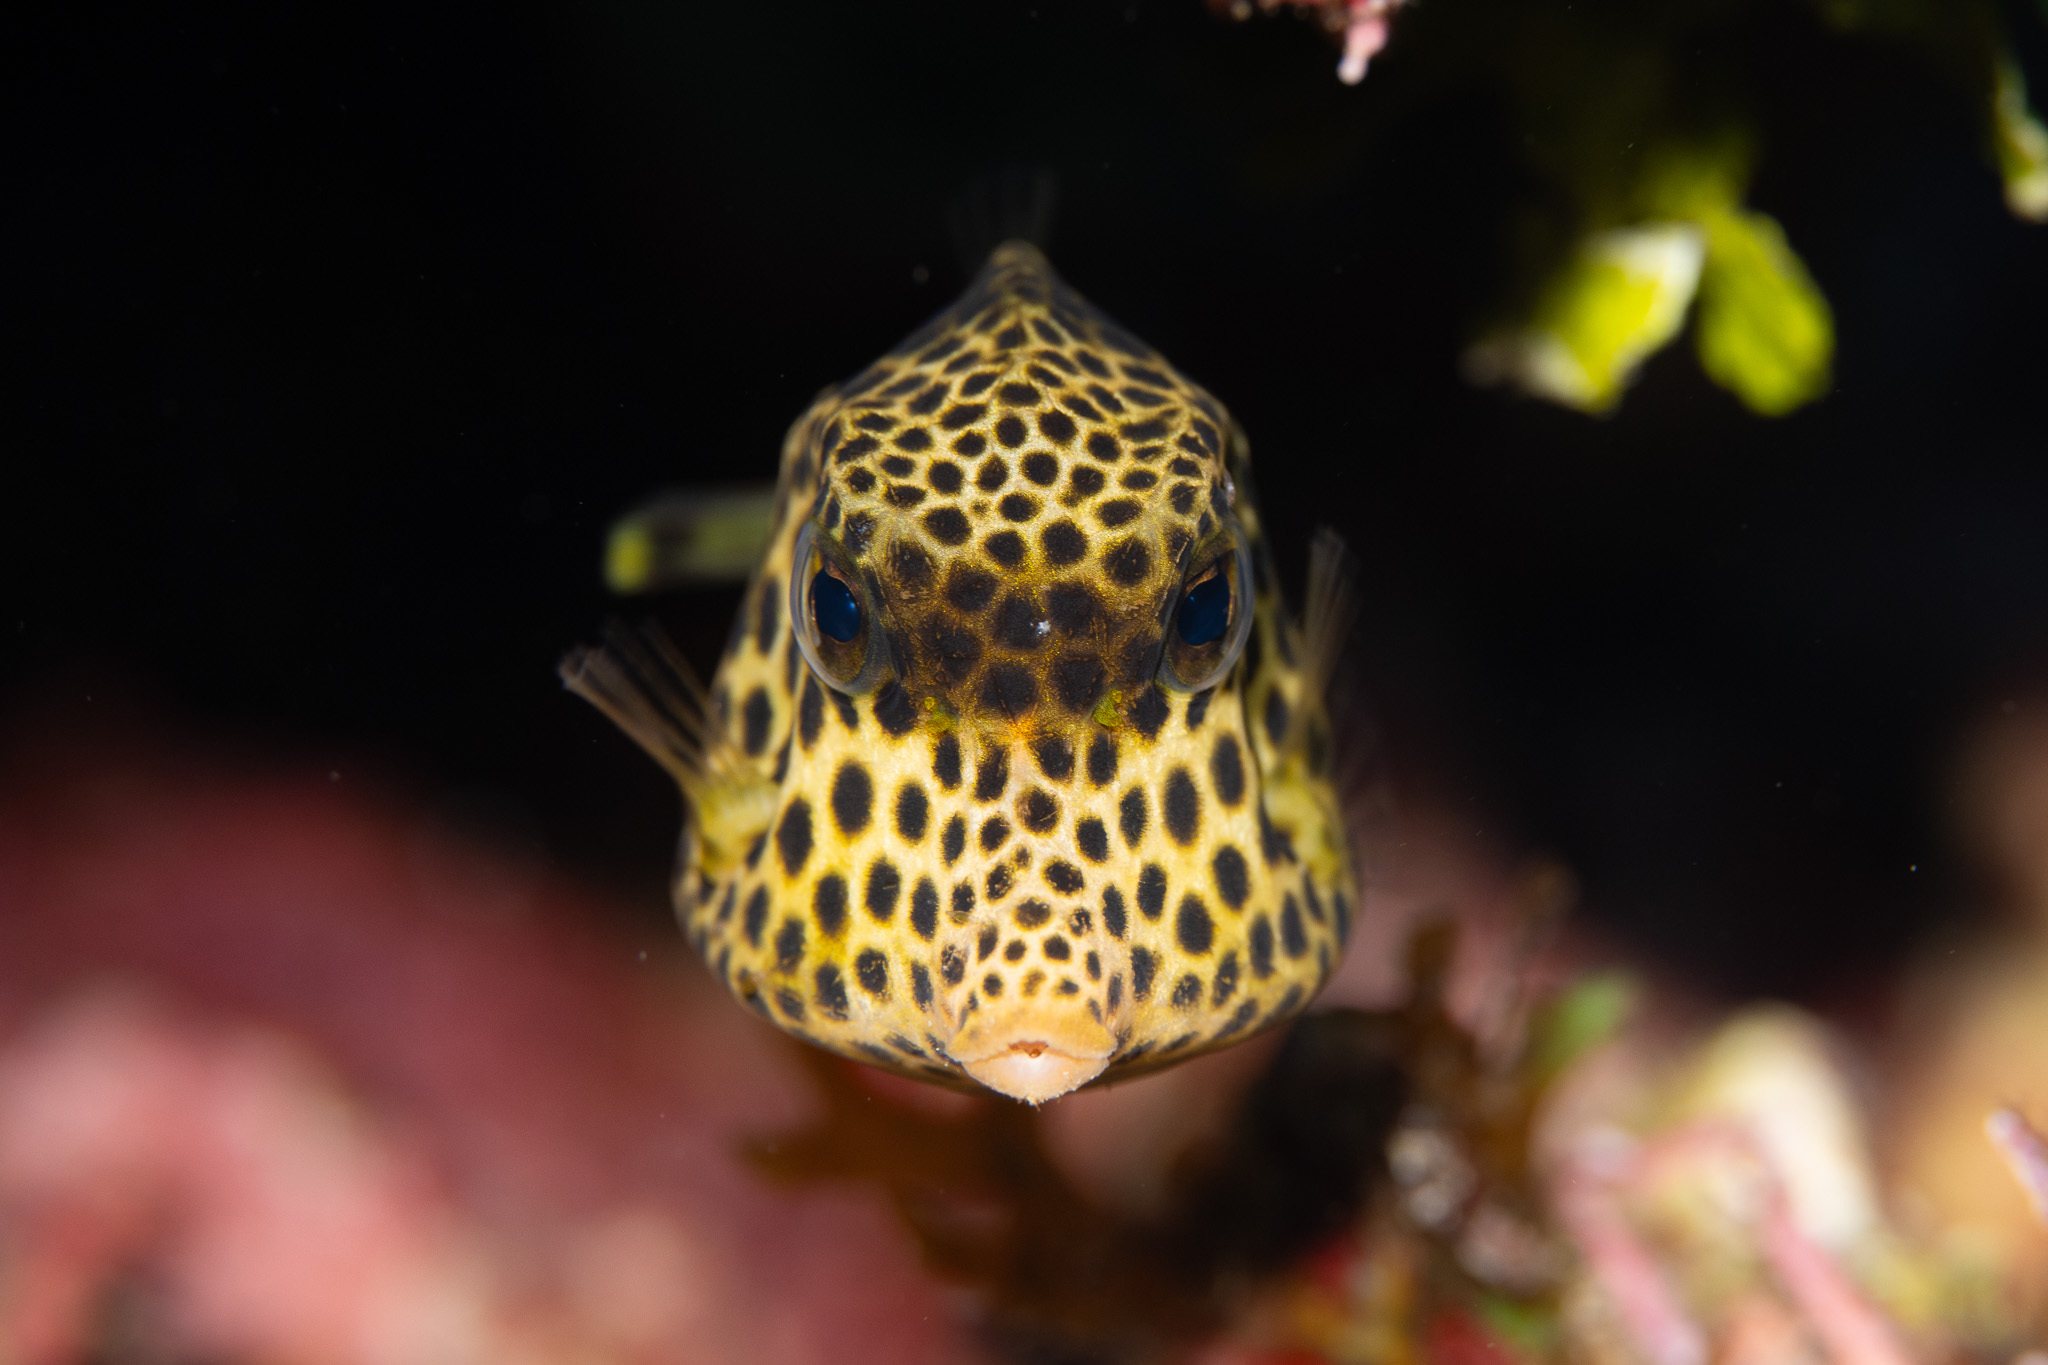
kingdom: Animalia
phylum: Chordata
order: Tetraodontiformes
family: Ostraciidae
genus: Lactophrys
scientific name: Lactophrys bicaudalis
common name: Spotted trunkfish
